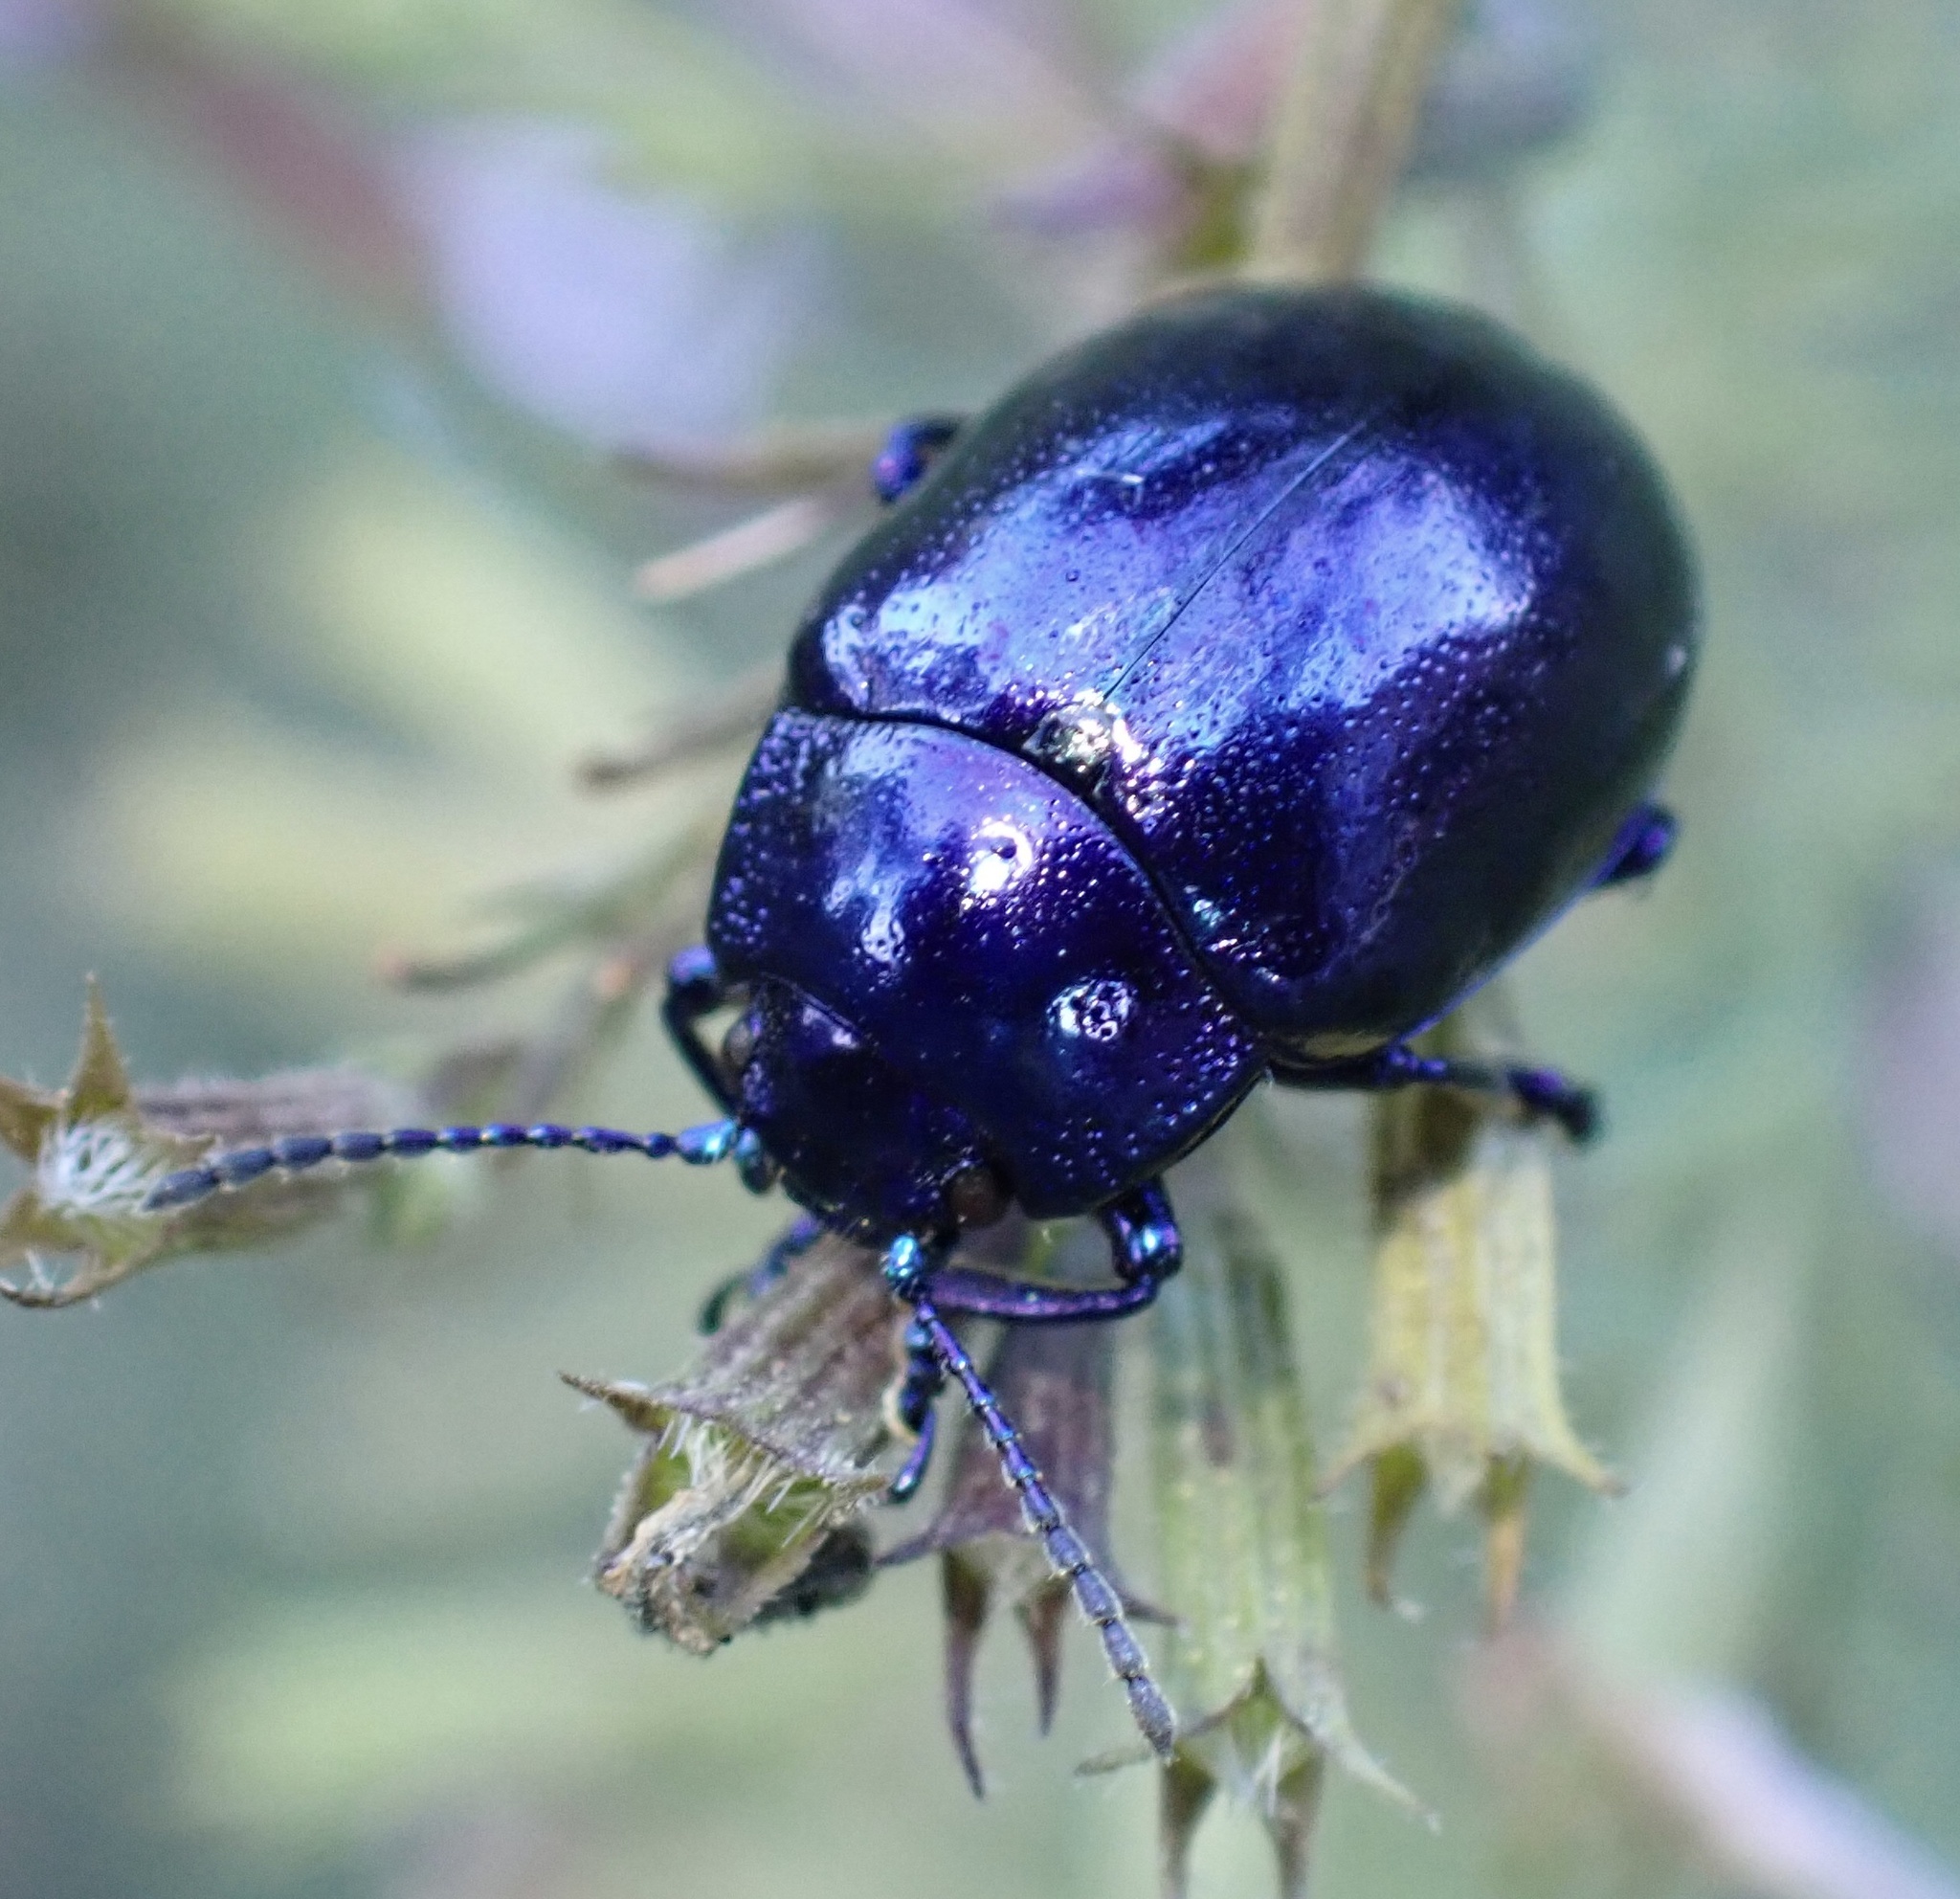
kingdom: Animalia
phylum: Arthropoda
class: Insecta
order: Coleoptera
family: Chrysomelidae
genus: Chrysolina
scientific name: Chrysolina coerulans
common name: Blue mint beetle
